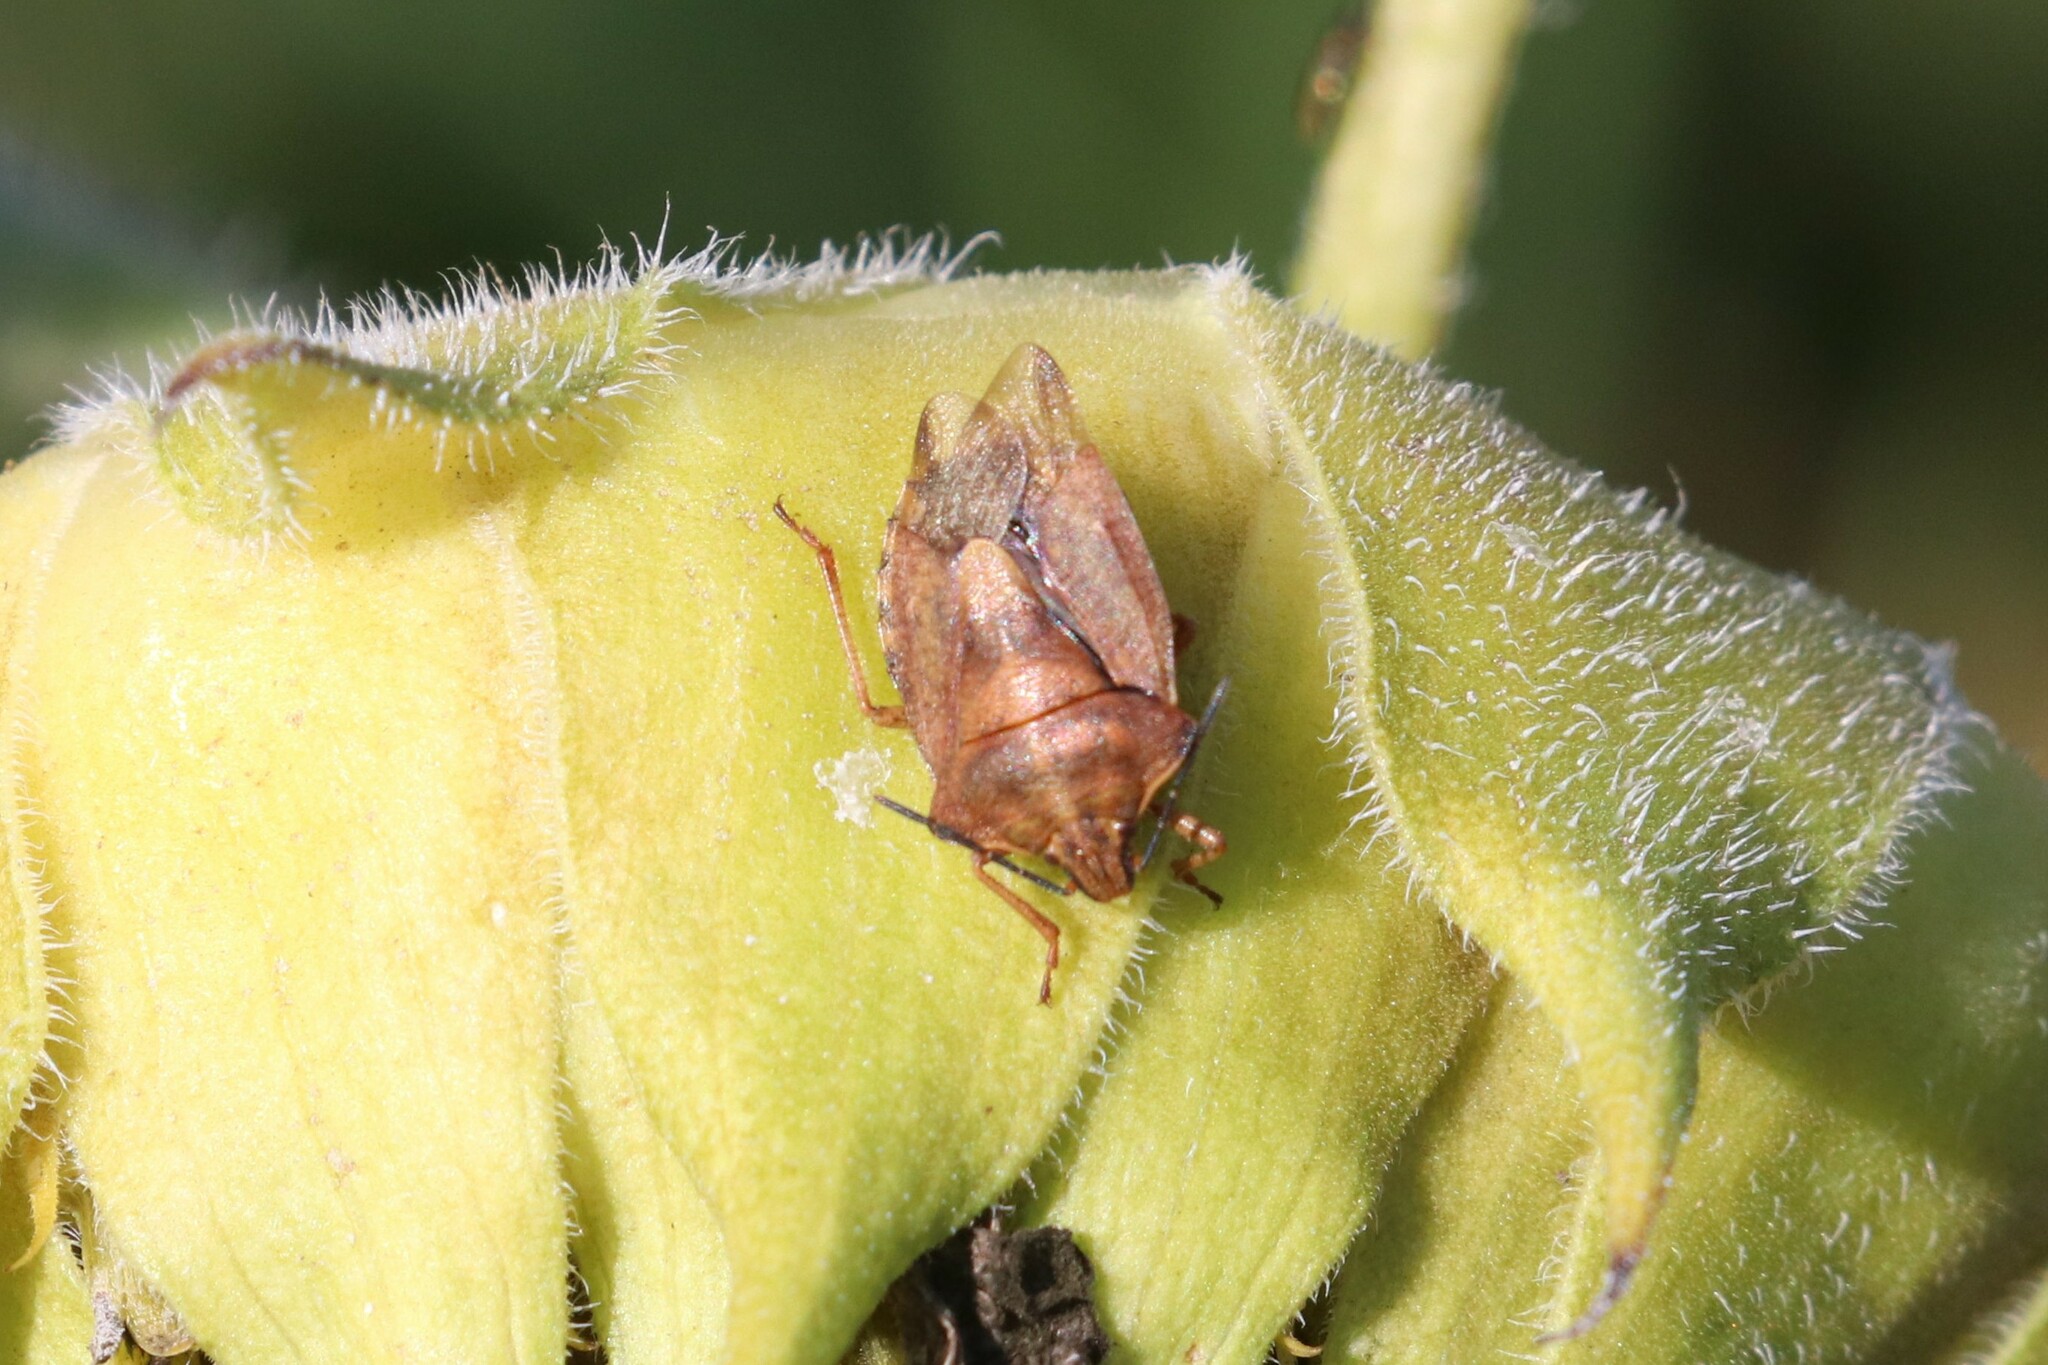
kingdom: Animalia
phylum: Arthropoda
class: Insecta
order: Hemiptera
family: Pentatomidae
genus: Carpocoris
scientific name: Carpocoris purpureipennis
